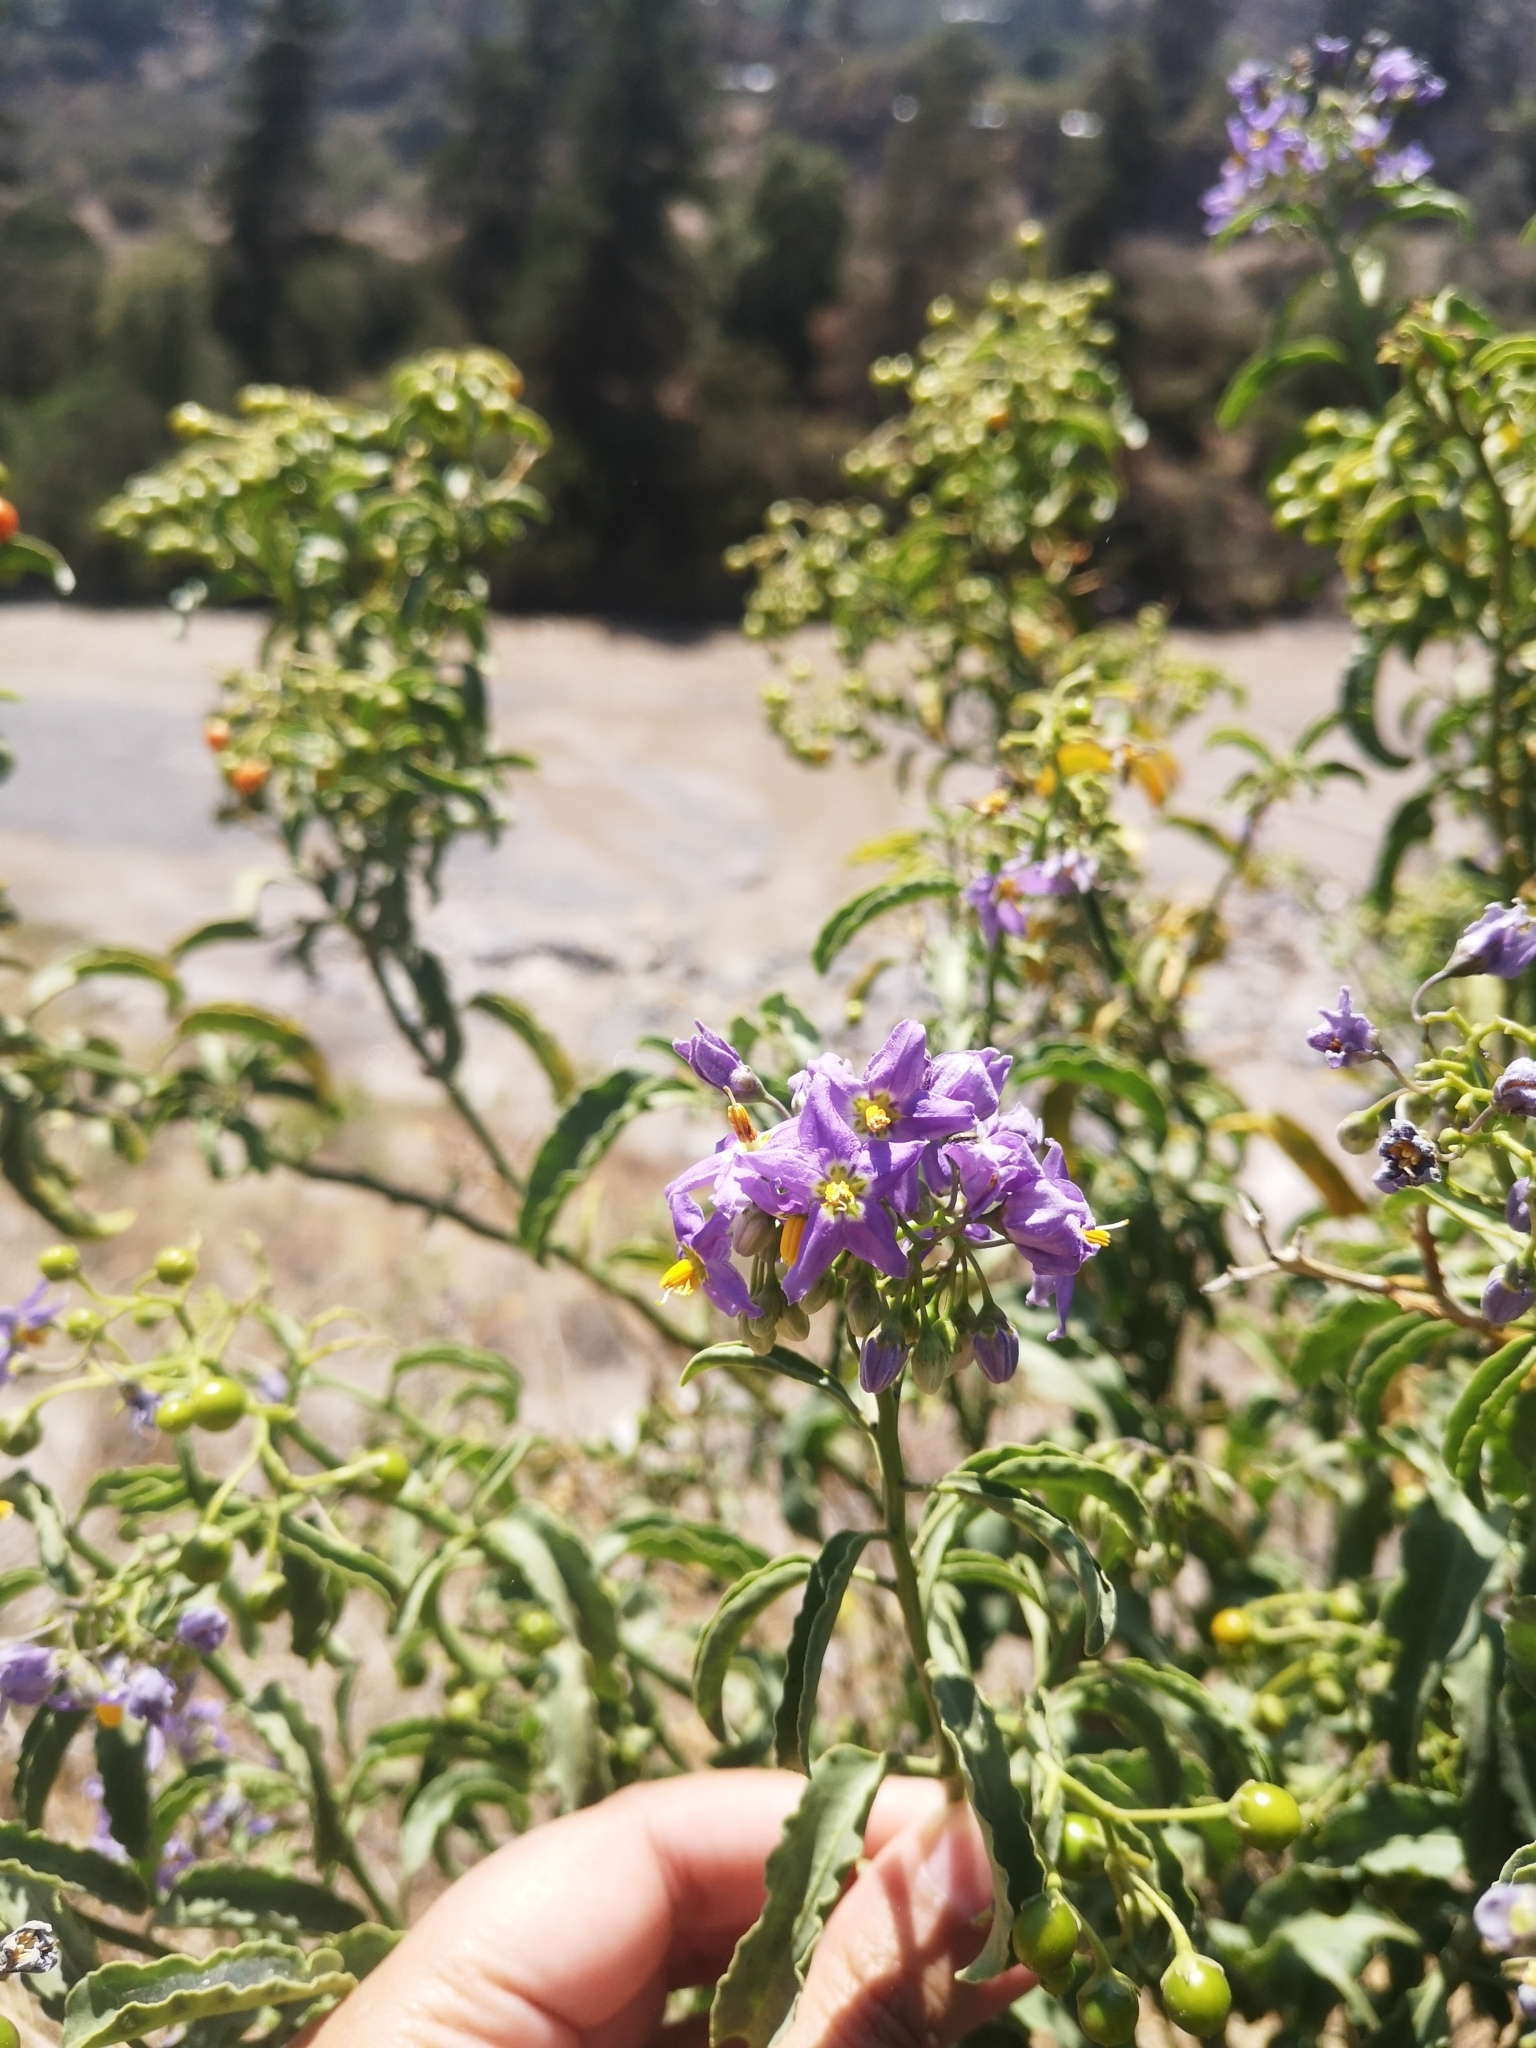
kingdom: Plantae
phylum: Tracheophyta
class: Magnoliopsida
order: Solanales
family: Solanaceae
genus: Solanum
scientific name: Solanum crispum
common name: Chilean nightshade
